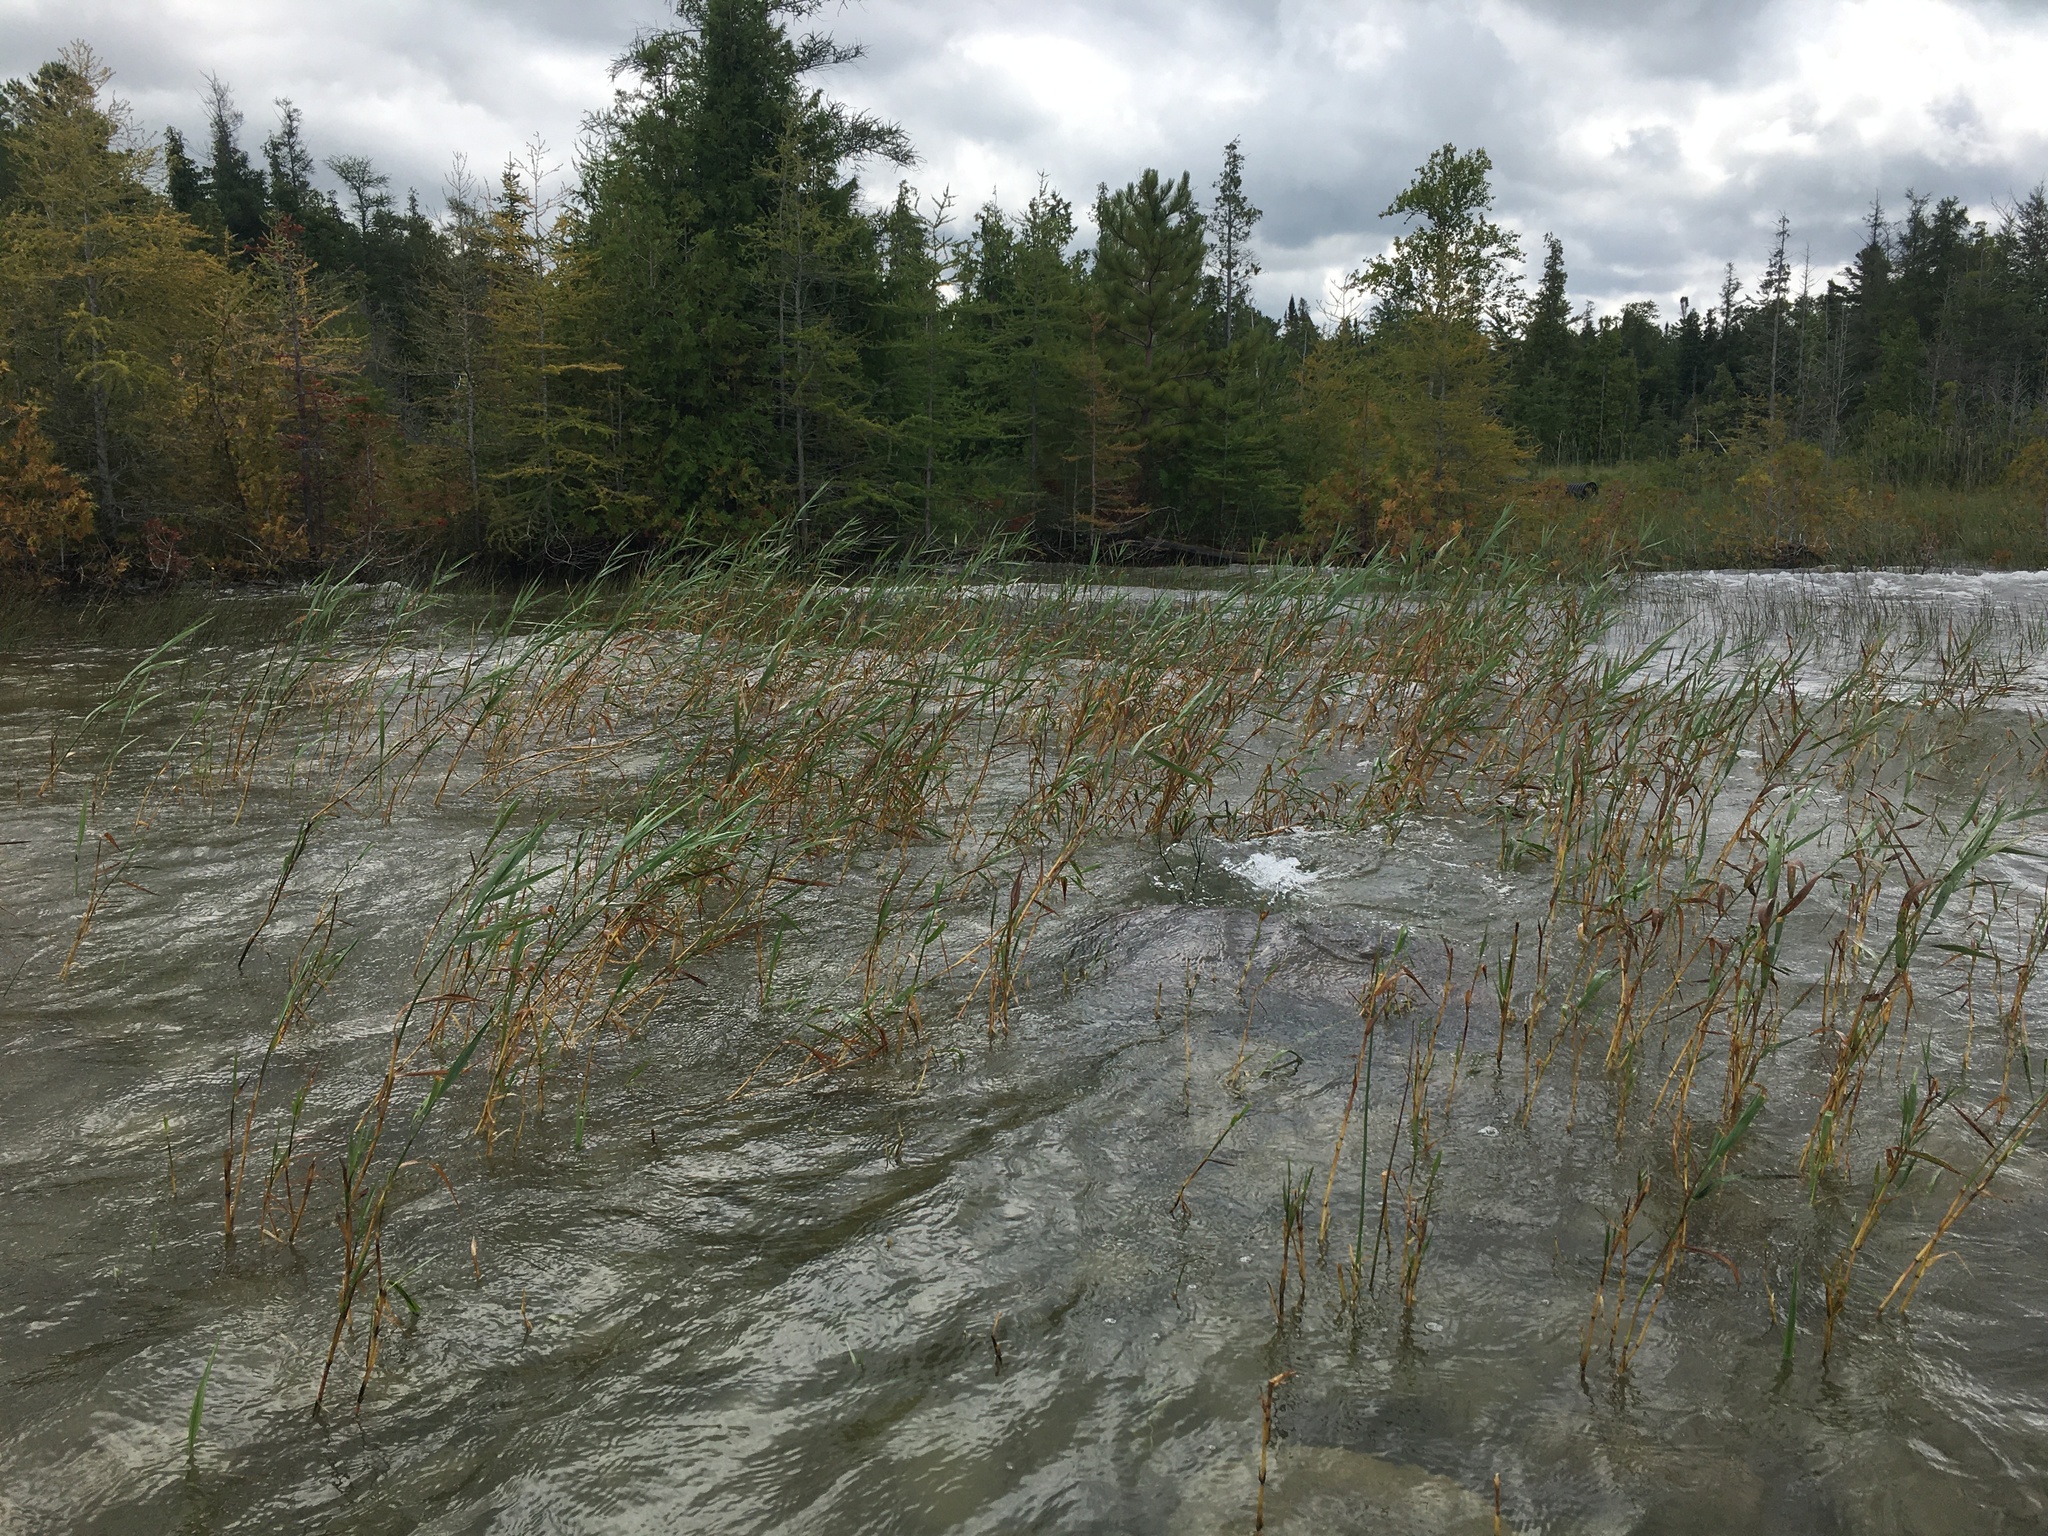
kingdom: Plantae
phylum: Tracheophyta
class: Liliopsida
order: Poales
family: Poaceae
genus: Phragmites
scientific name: Phragmites australis
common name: Common reed
